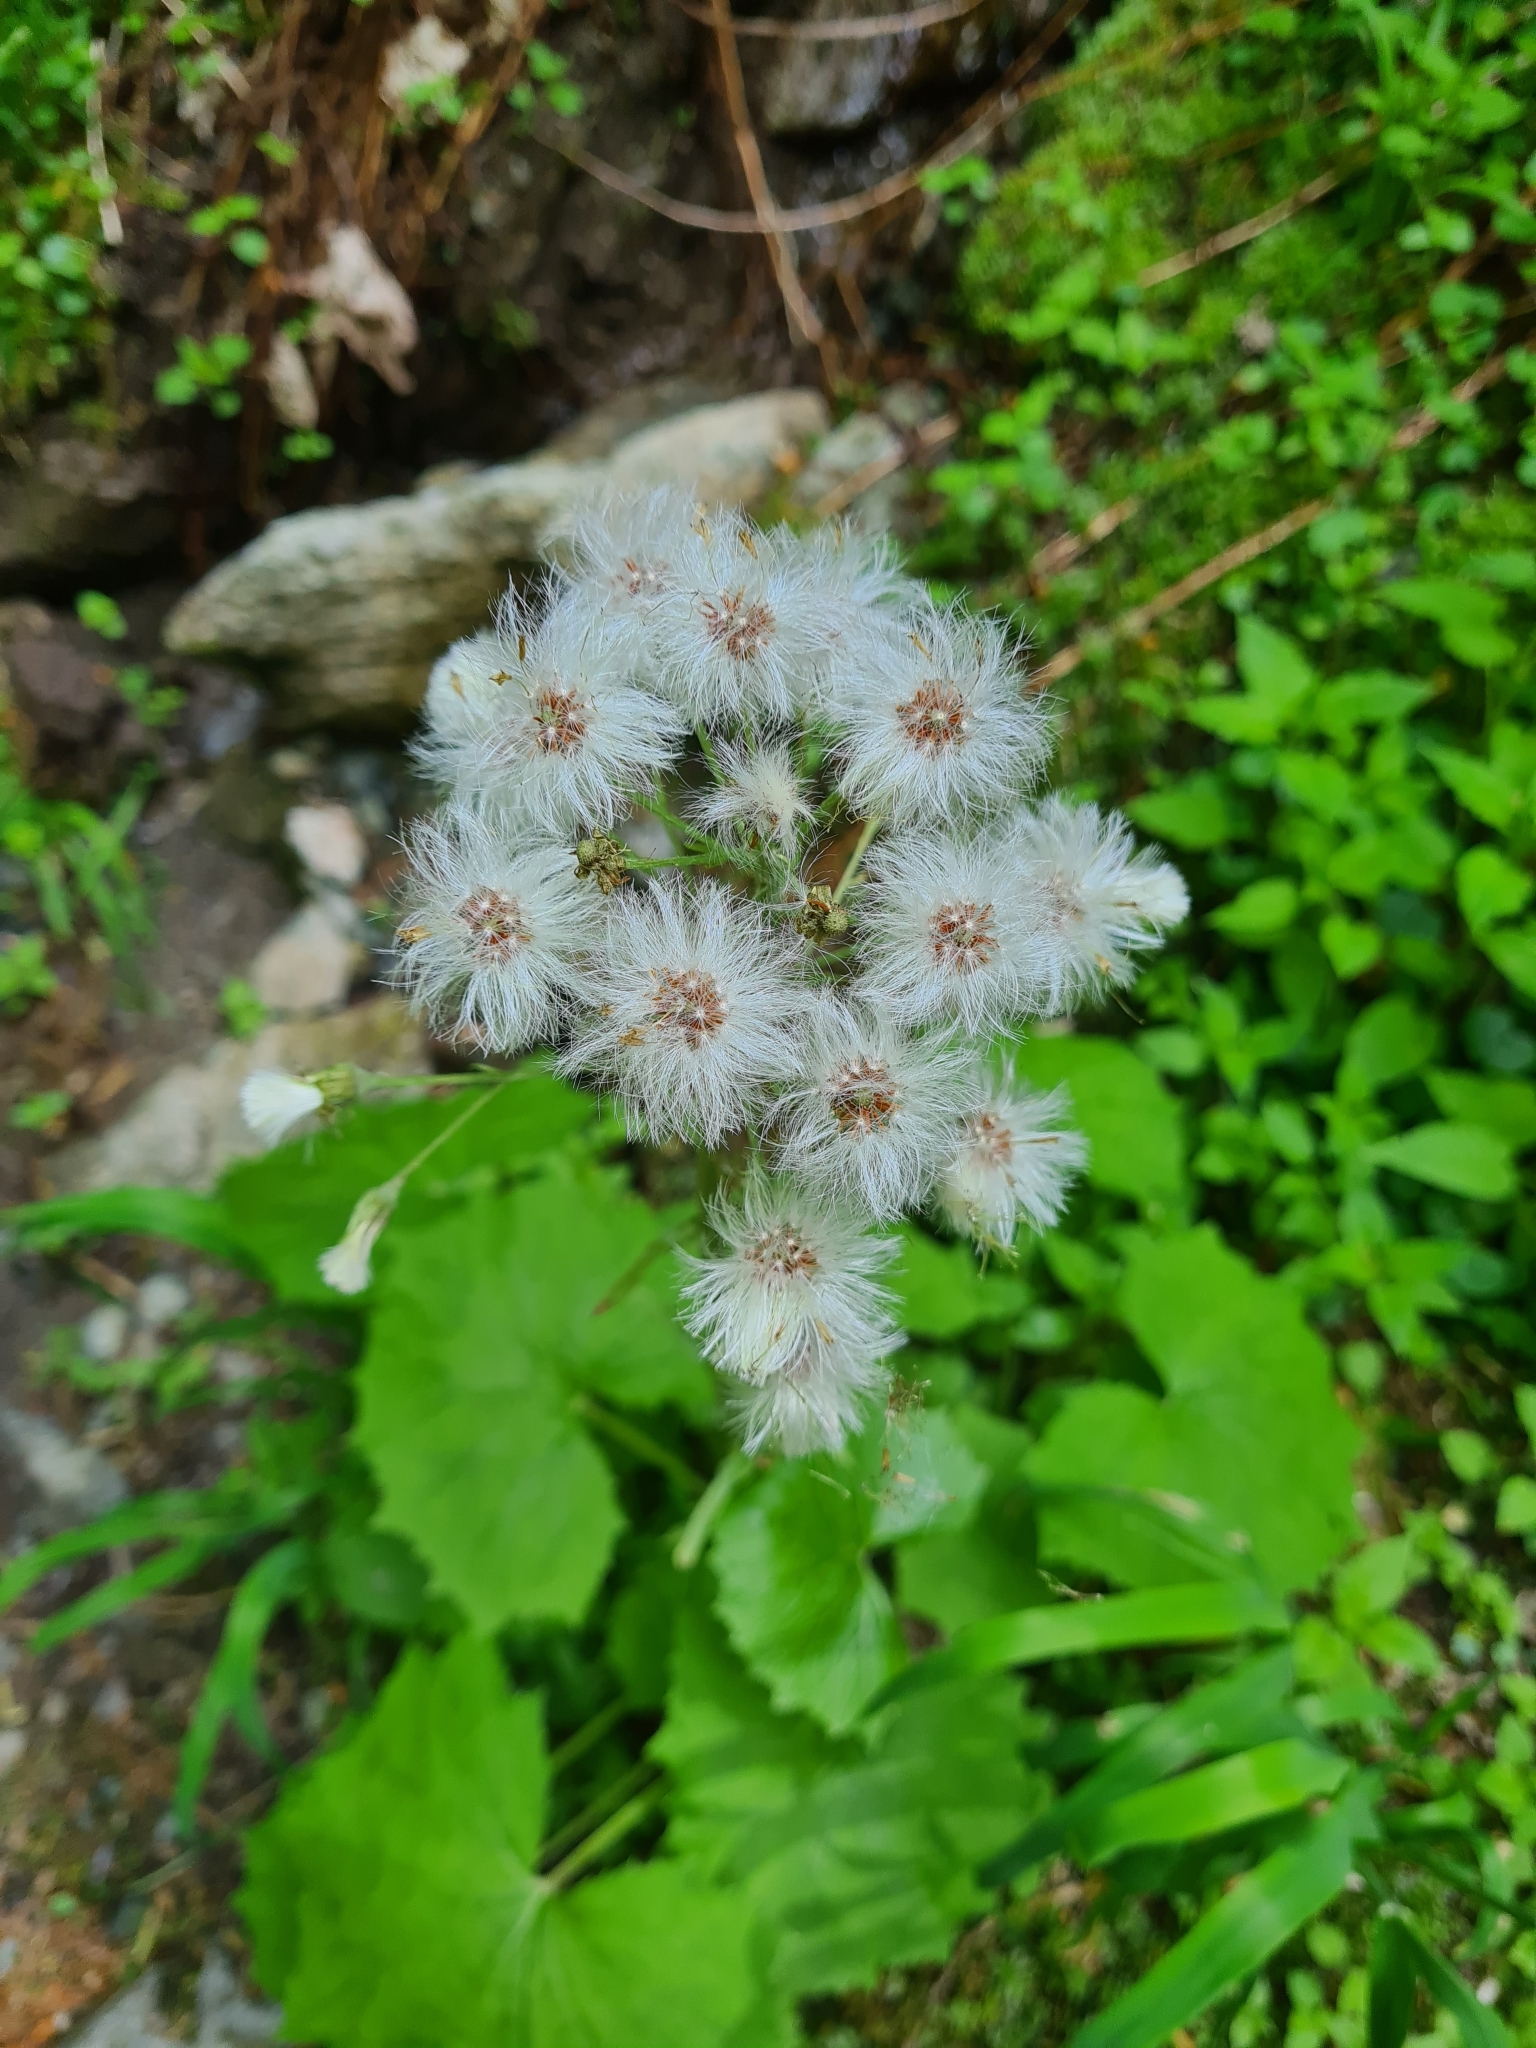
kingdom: Plantae
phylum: Tracheophyta
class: Magnoliopsida
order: Asterales
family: Asteraceae
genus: Petasites
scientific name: Petasites albus
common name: White butterbur
